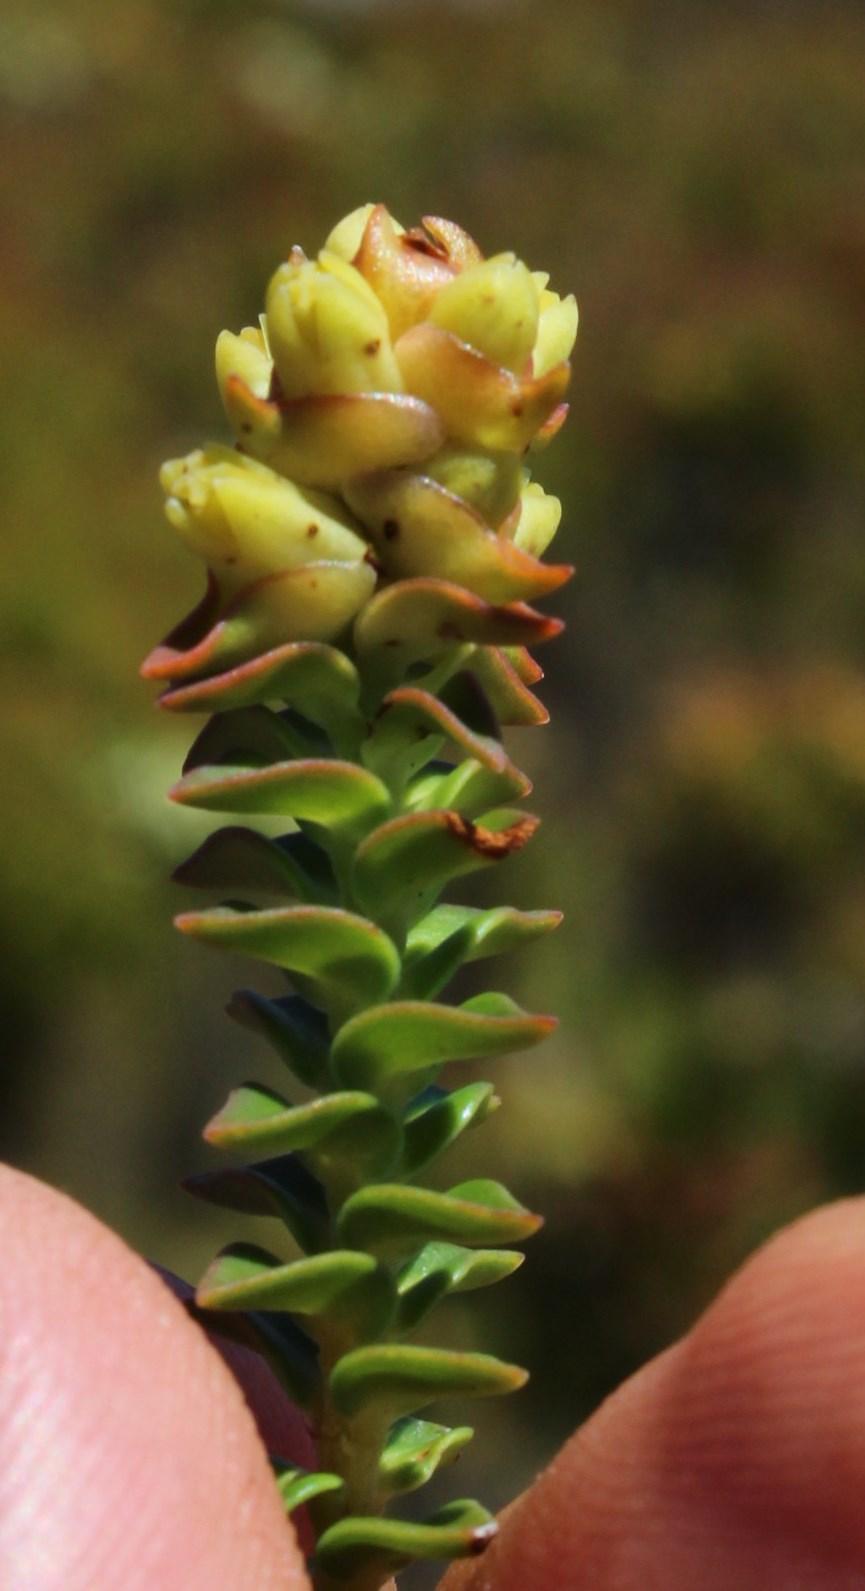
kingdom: Plantae
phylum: Tracheophyta
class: Magnoliopsida
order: Myrtales
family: Penaeaceae
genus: Penaea
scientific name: Penaea mucronata
